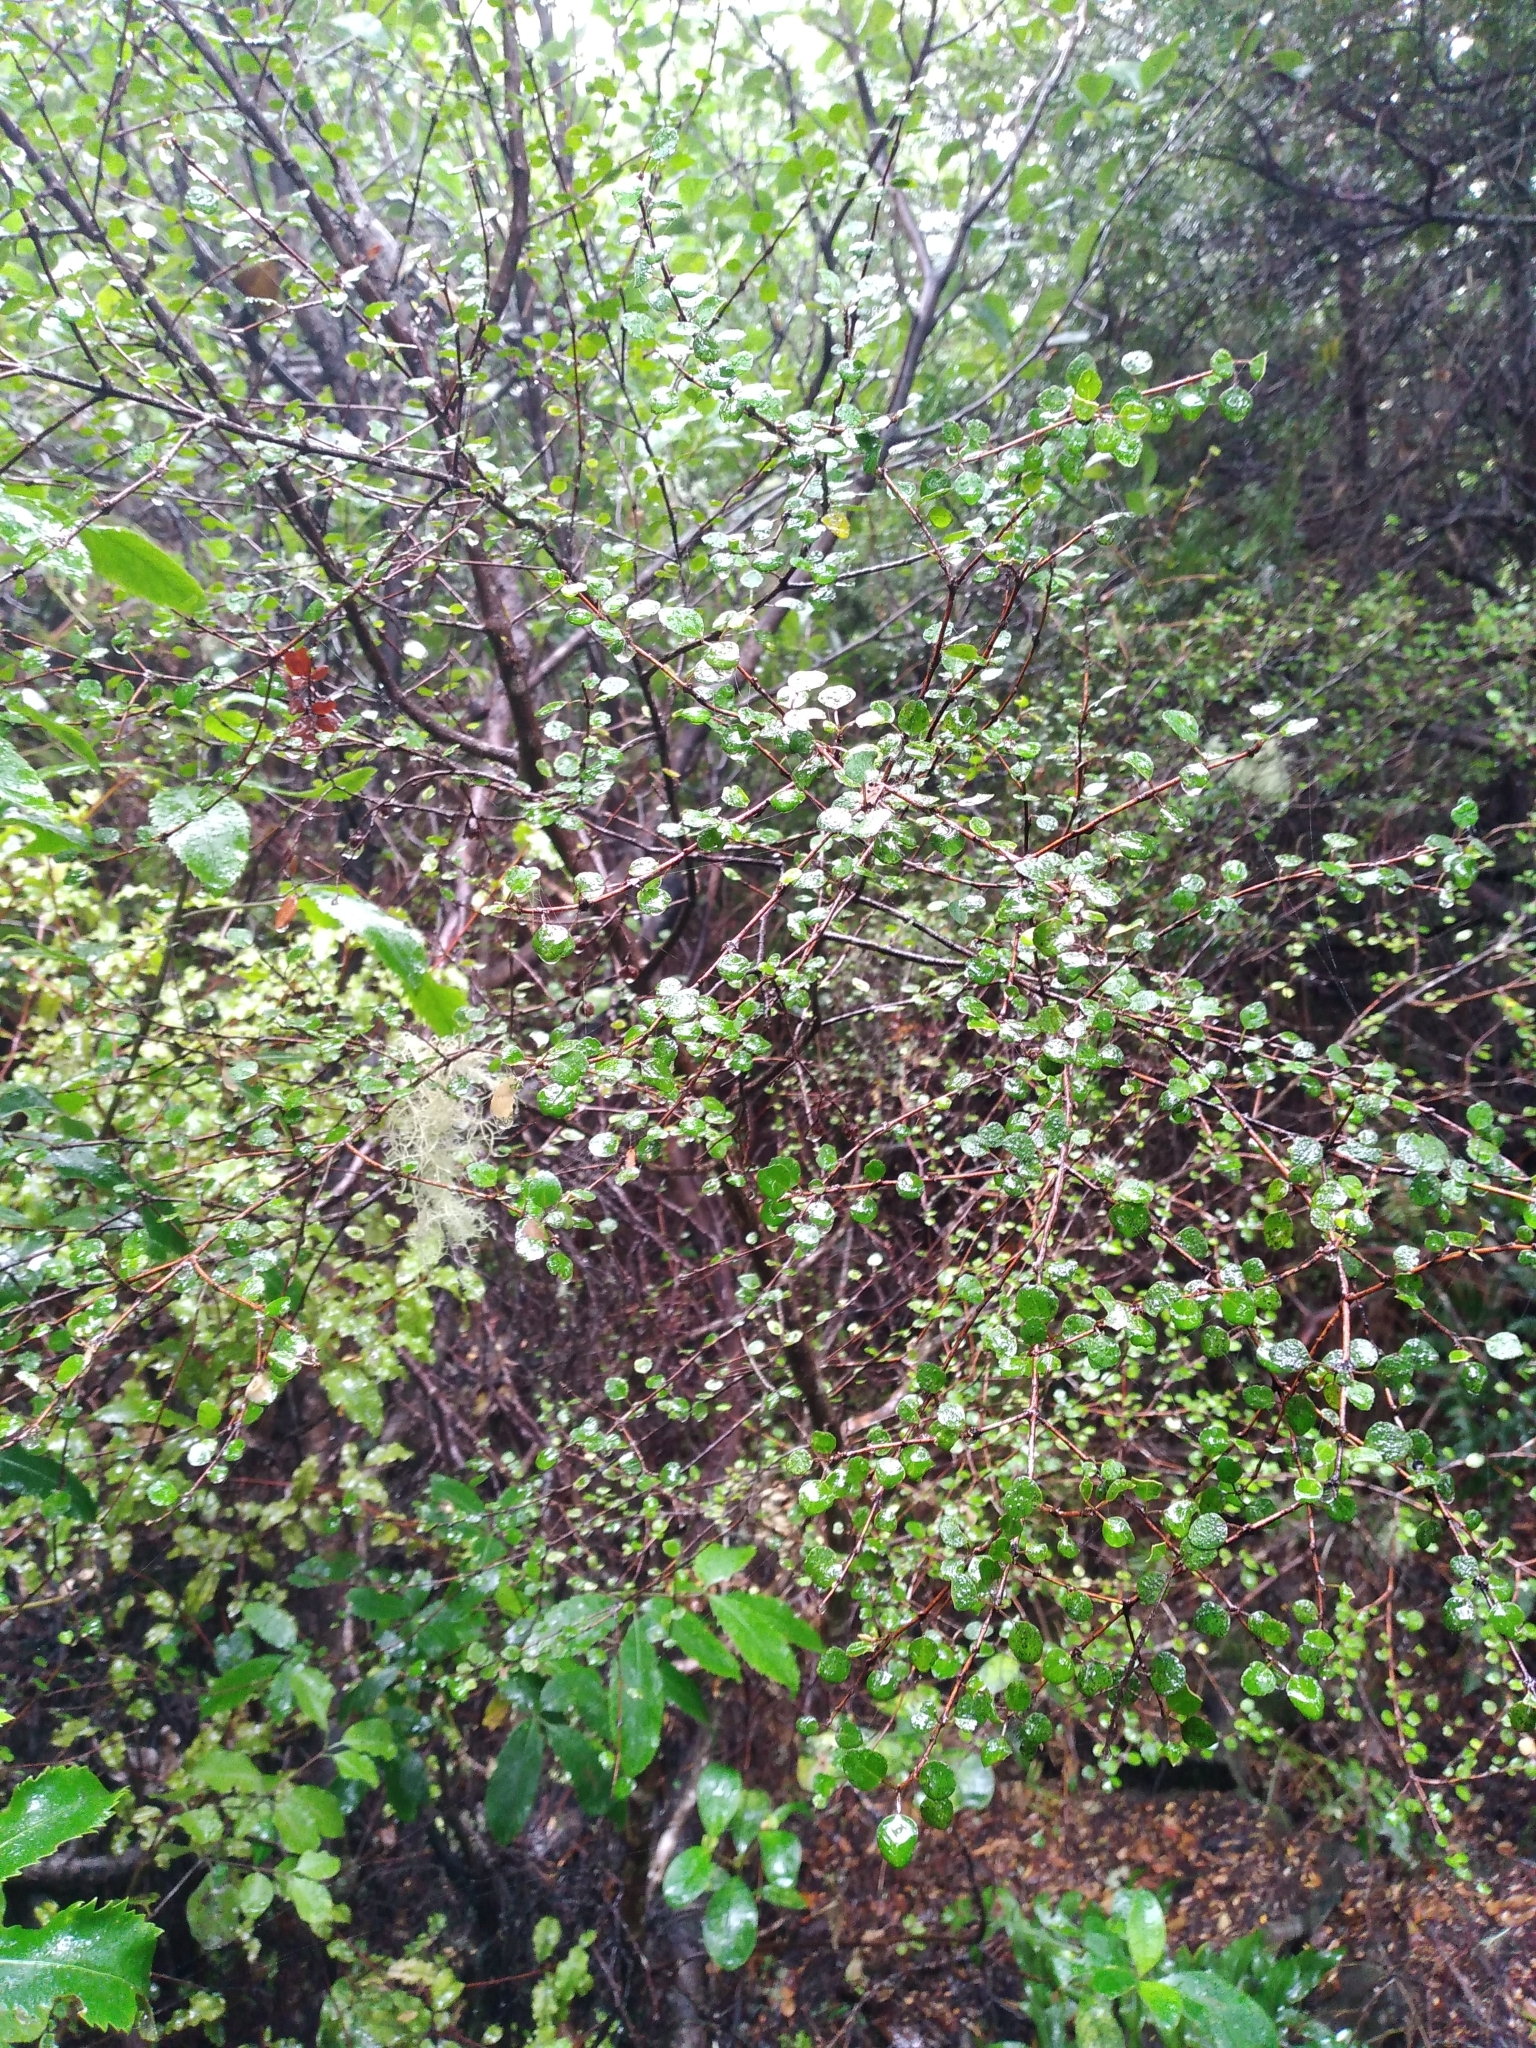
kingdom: Plantae
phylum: Tracheophyta
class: Magnoliopsida
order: Sapindales
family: Rutaceae
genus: Melicope
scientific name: Melicope simplex
